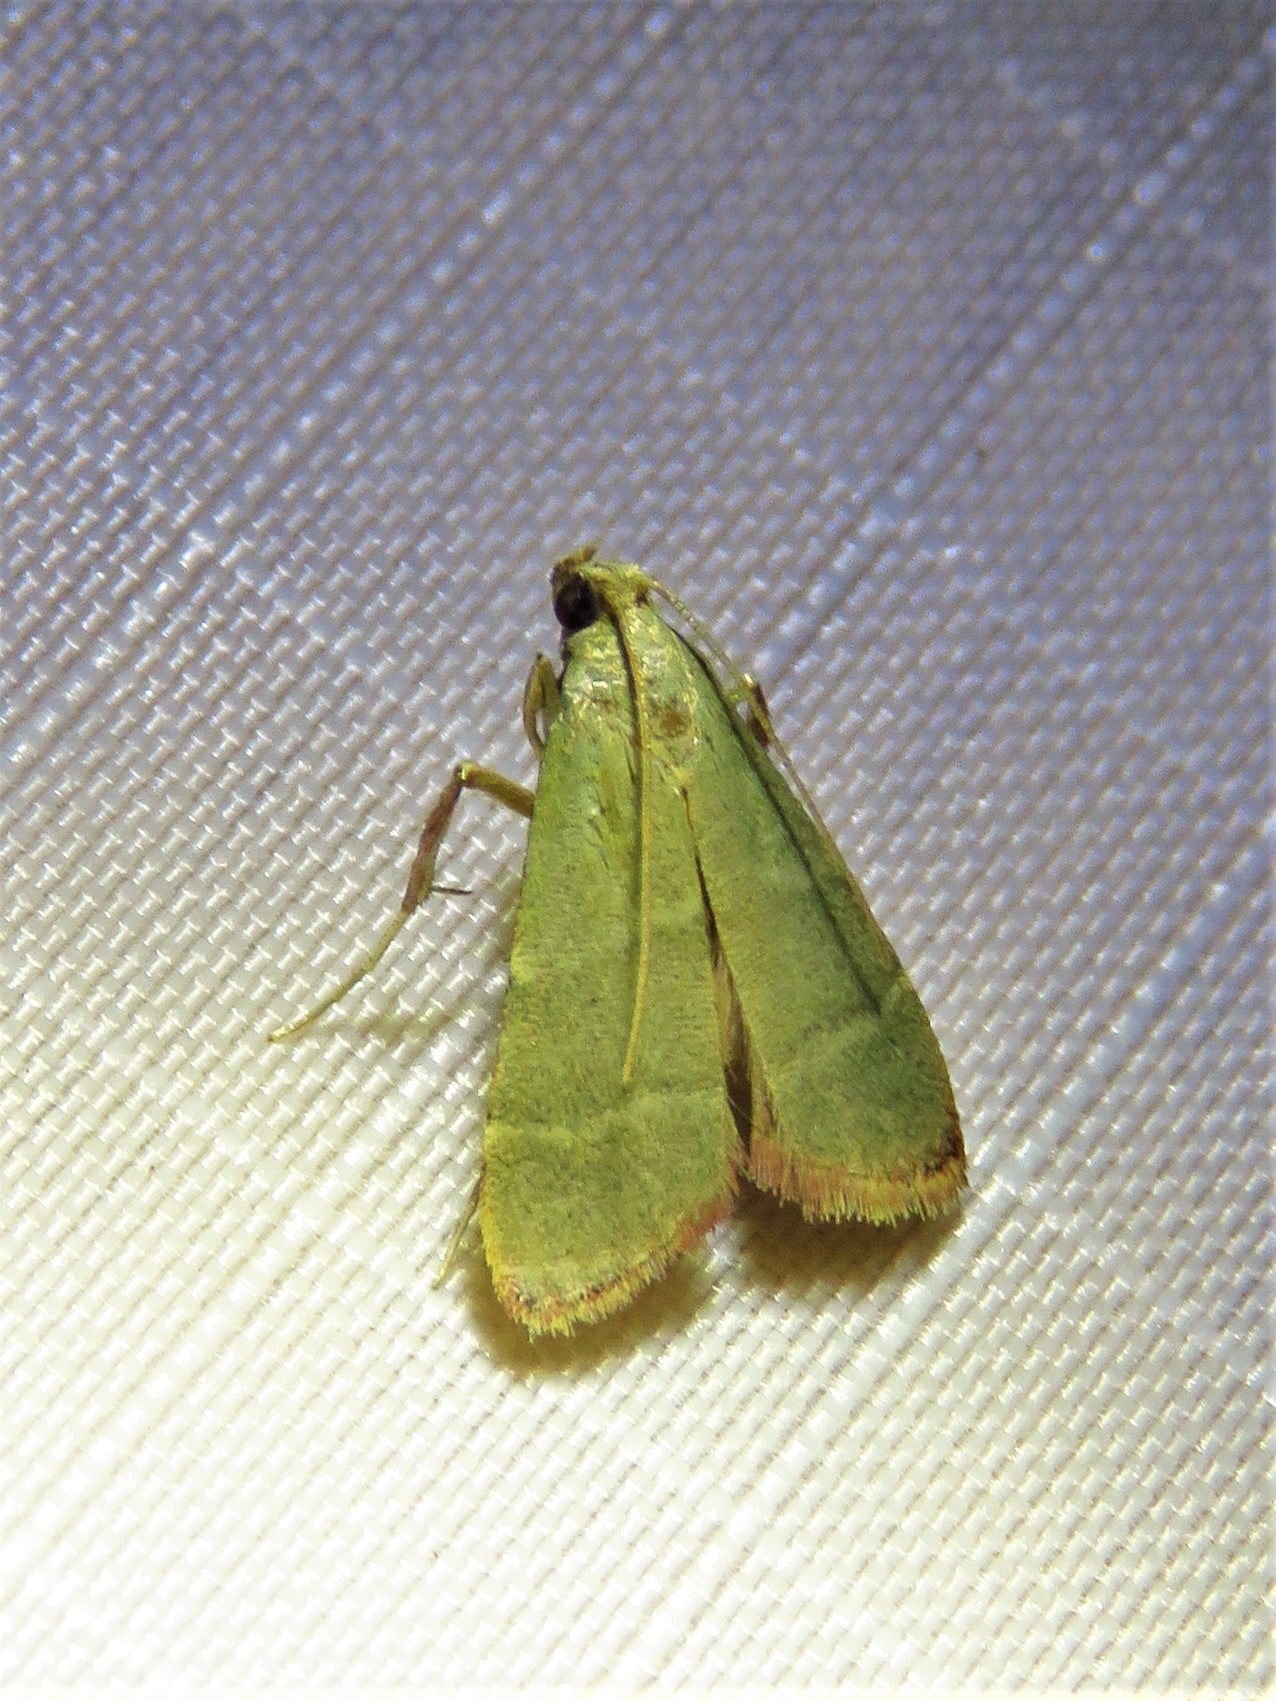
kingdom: Animalia
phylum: Arthropoda
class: Insecta
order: Lepidoptera
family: Pyralidae
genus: Arta
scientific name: Arta olivalis
